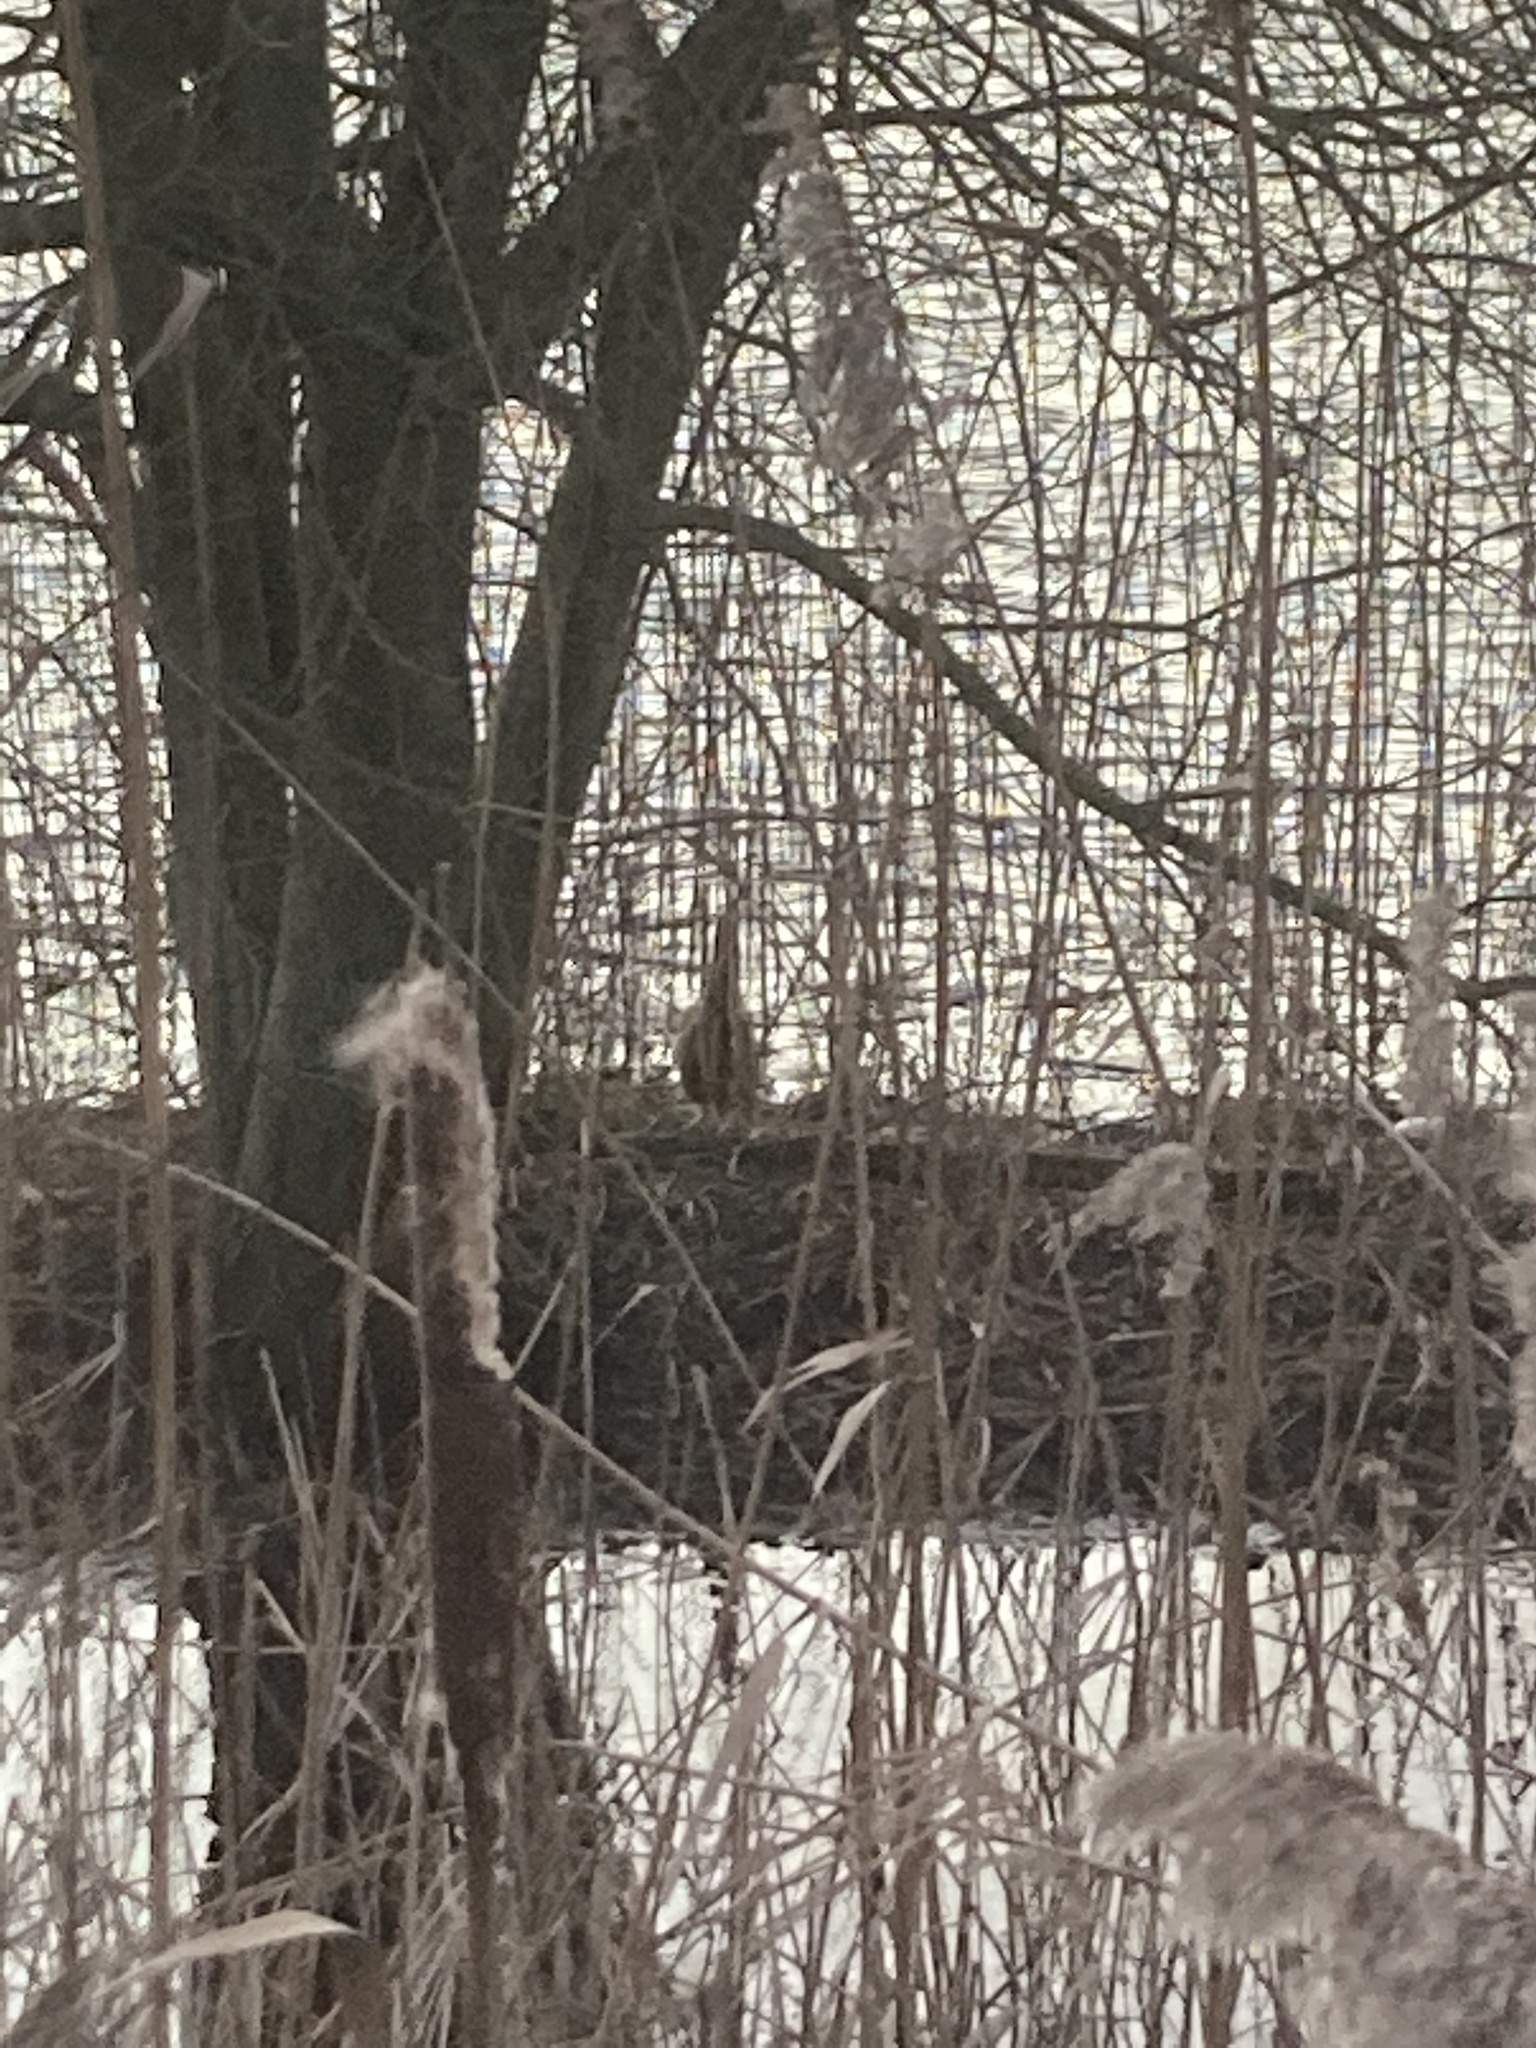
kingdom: Animalia
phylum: Chordata
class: Aves
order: Pelecaniformes
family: Ardeidae
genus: Botaurus
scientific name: Botaurus stellaris
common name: Eurasian bittern
